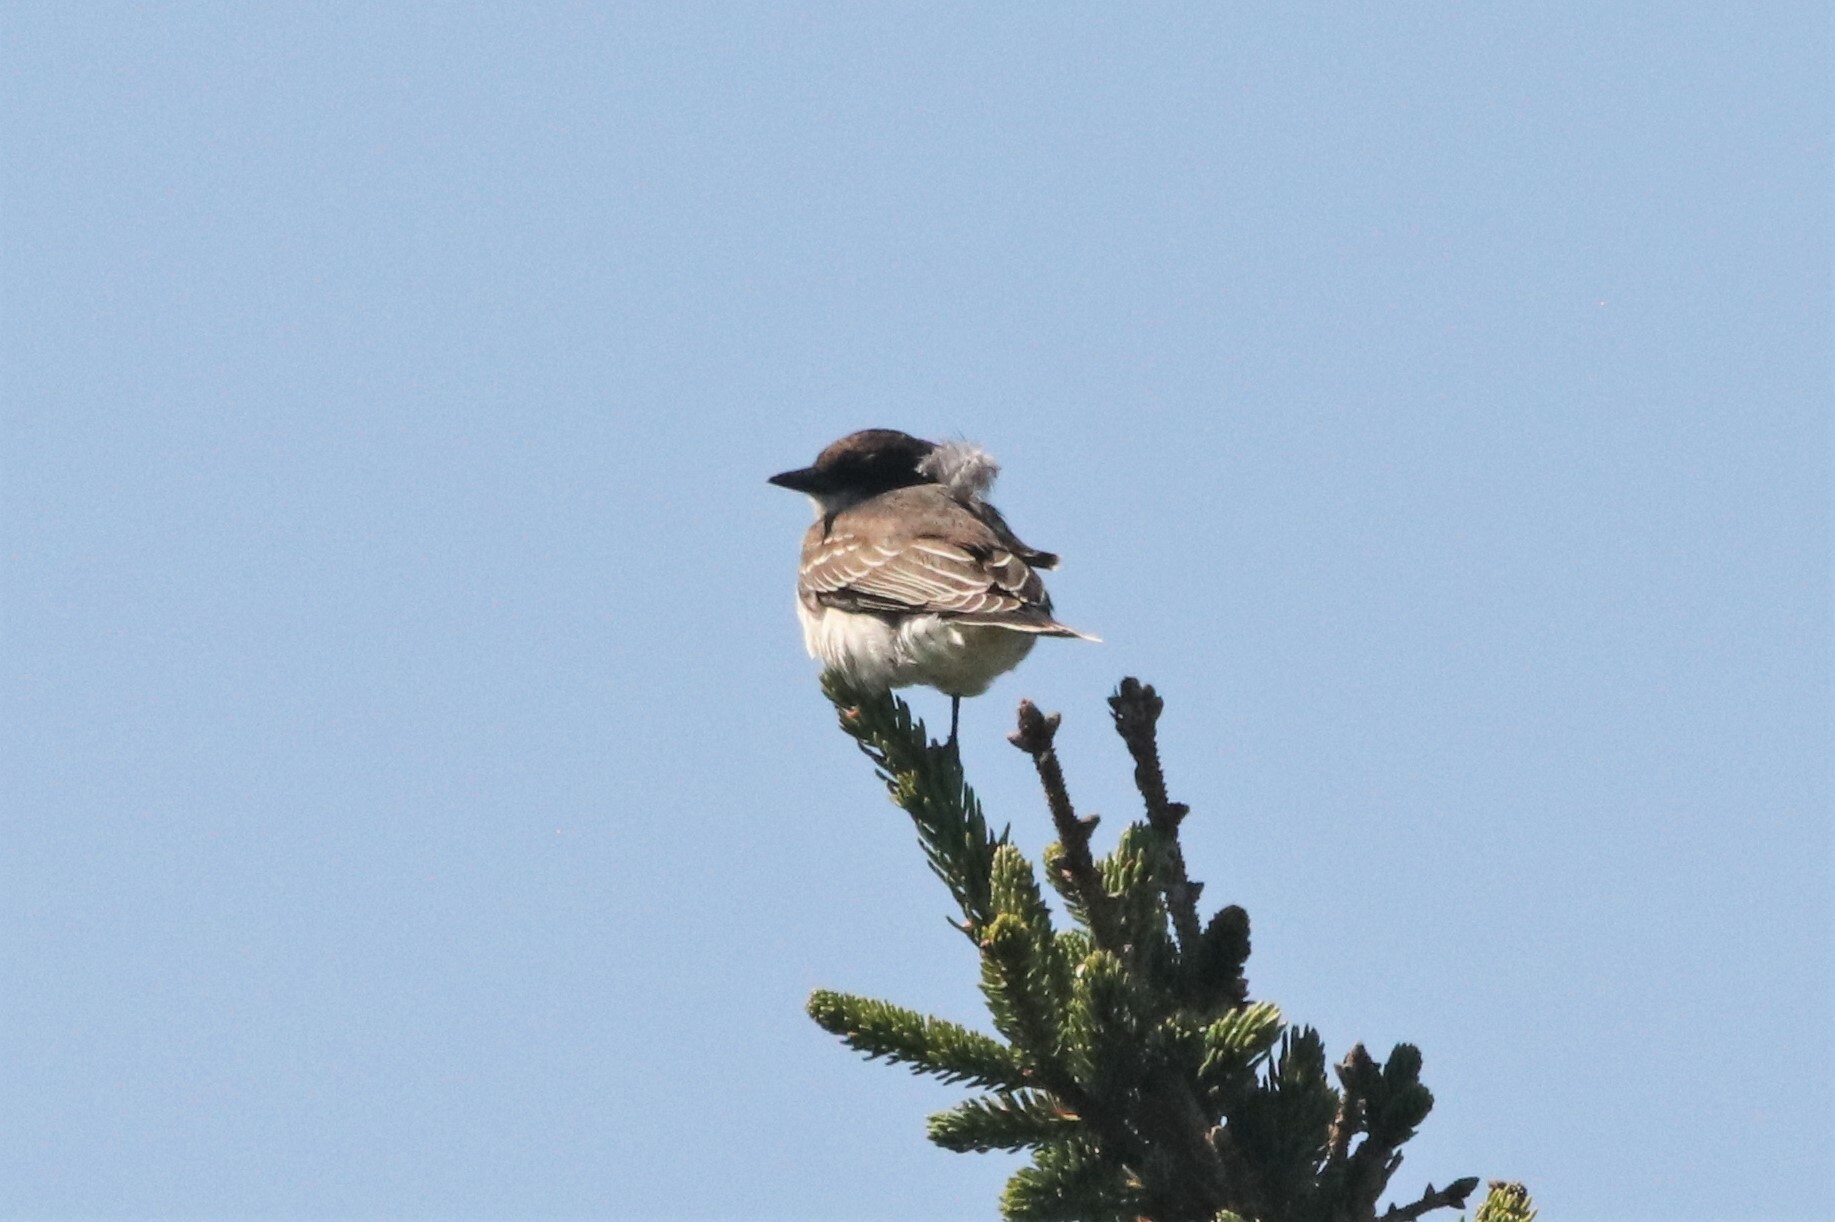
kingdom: Animalia
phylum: Chordata
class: Aves
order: Passeriformes
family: Tyrannidae
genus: Tyrannus
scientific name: Tyrannus tyrannus
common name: Eastern kingbird
